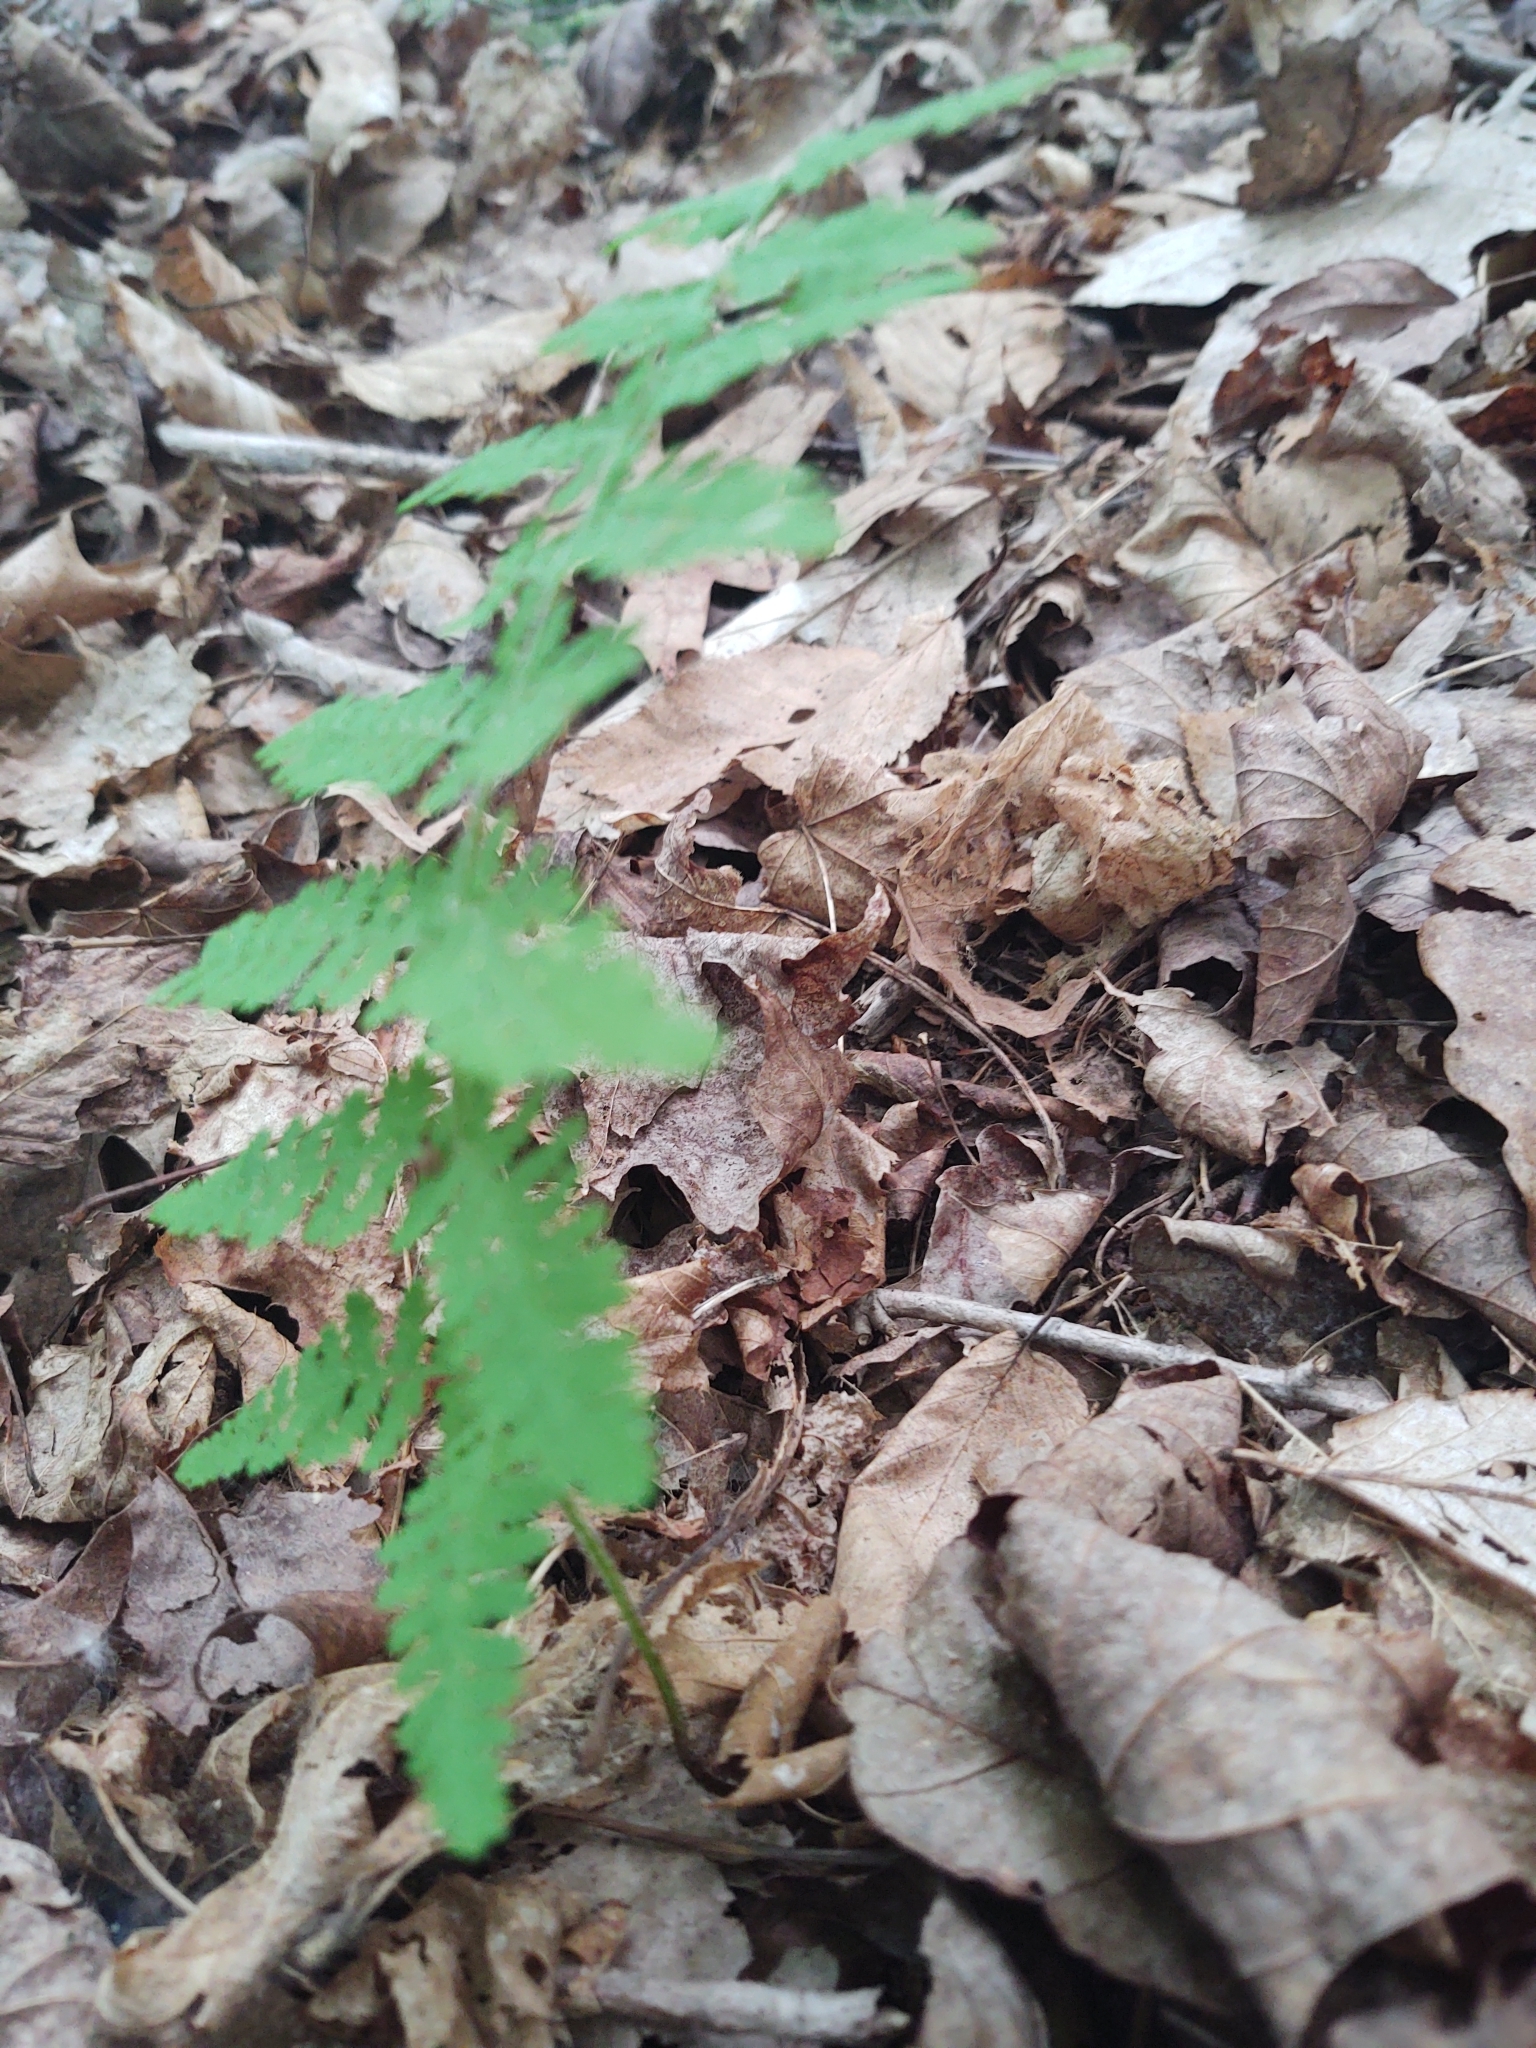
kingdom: Plantae
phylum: Tracheophyta
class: Polypodiopsida
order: Polypodiales
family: Dennstaedtiaceae
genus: Sitobolium
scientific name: Sitobolium punctilobum
